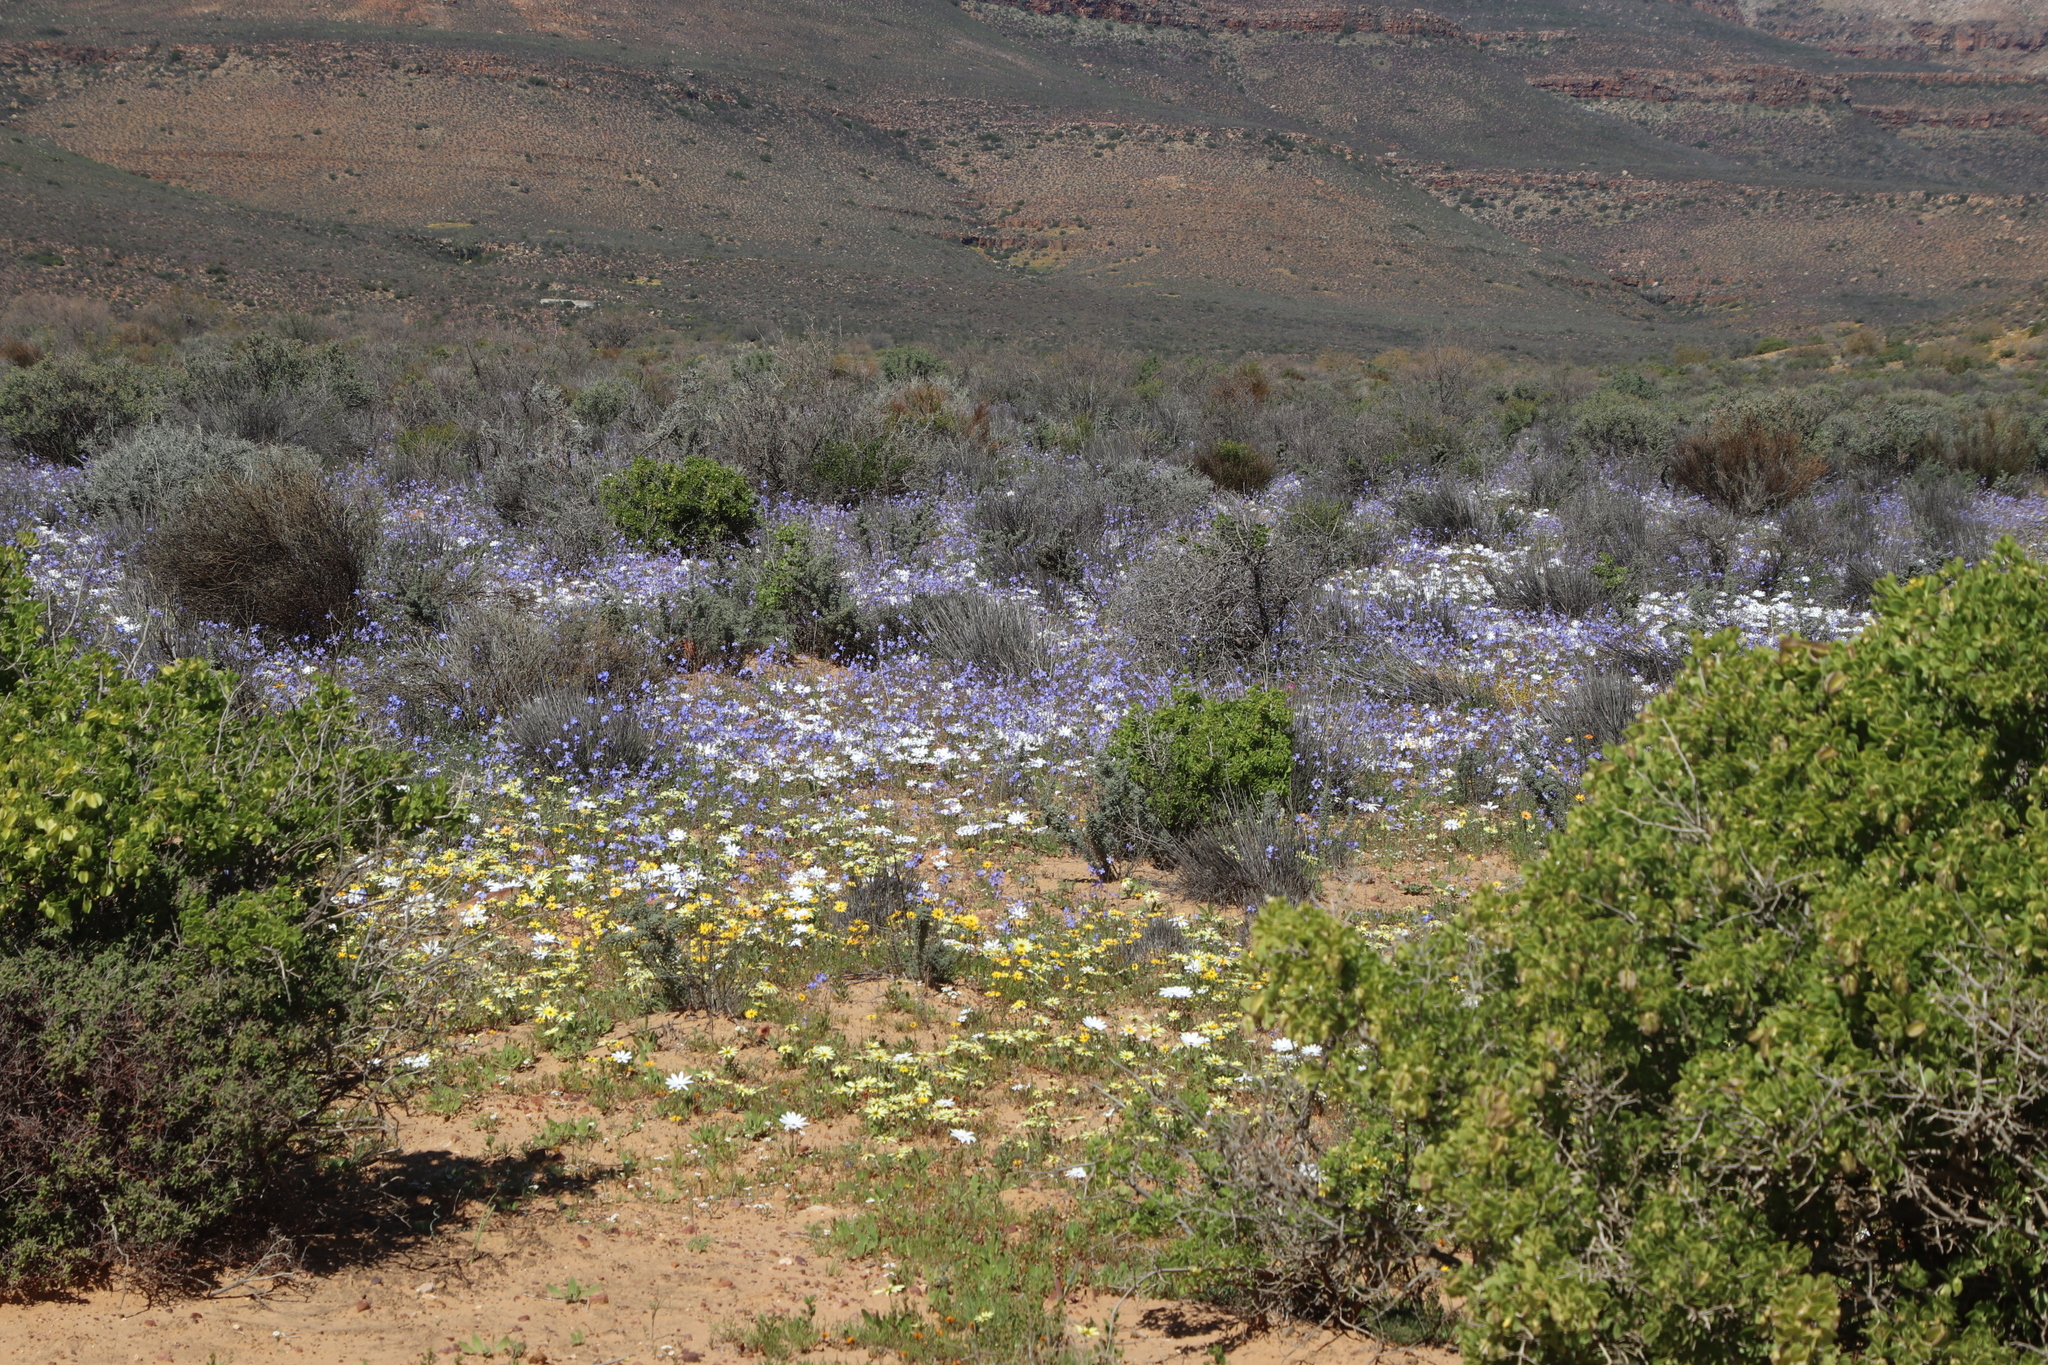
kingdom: Plantae
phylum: Tracheophyta
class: Magnoliopsida
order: Brassicales
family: Brassicaceae
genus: Heliophila
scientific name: Heliophila arenaria
